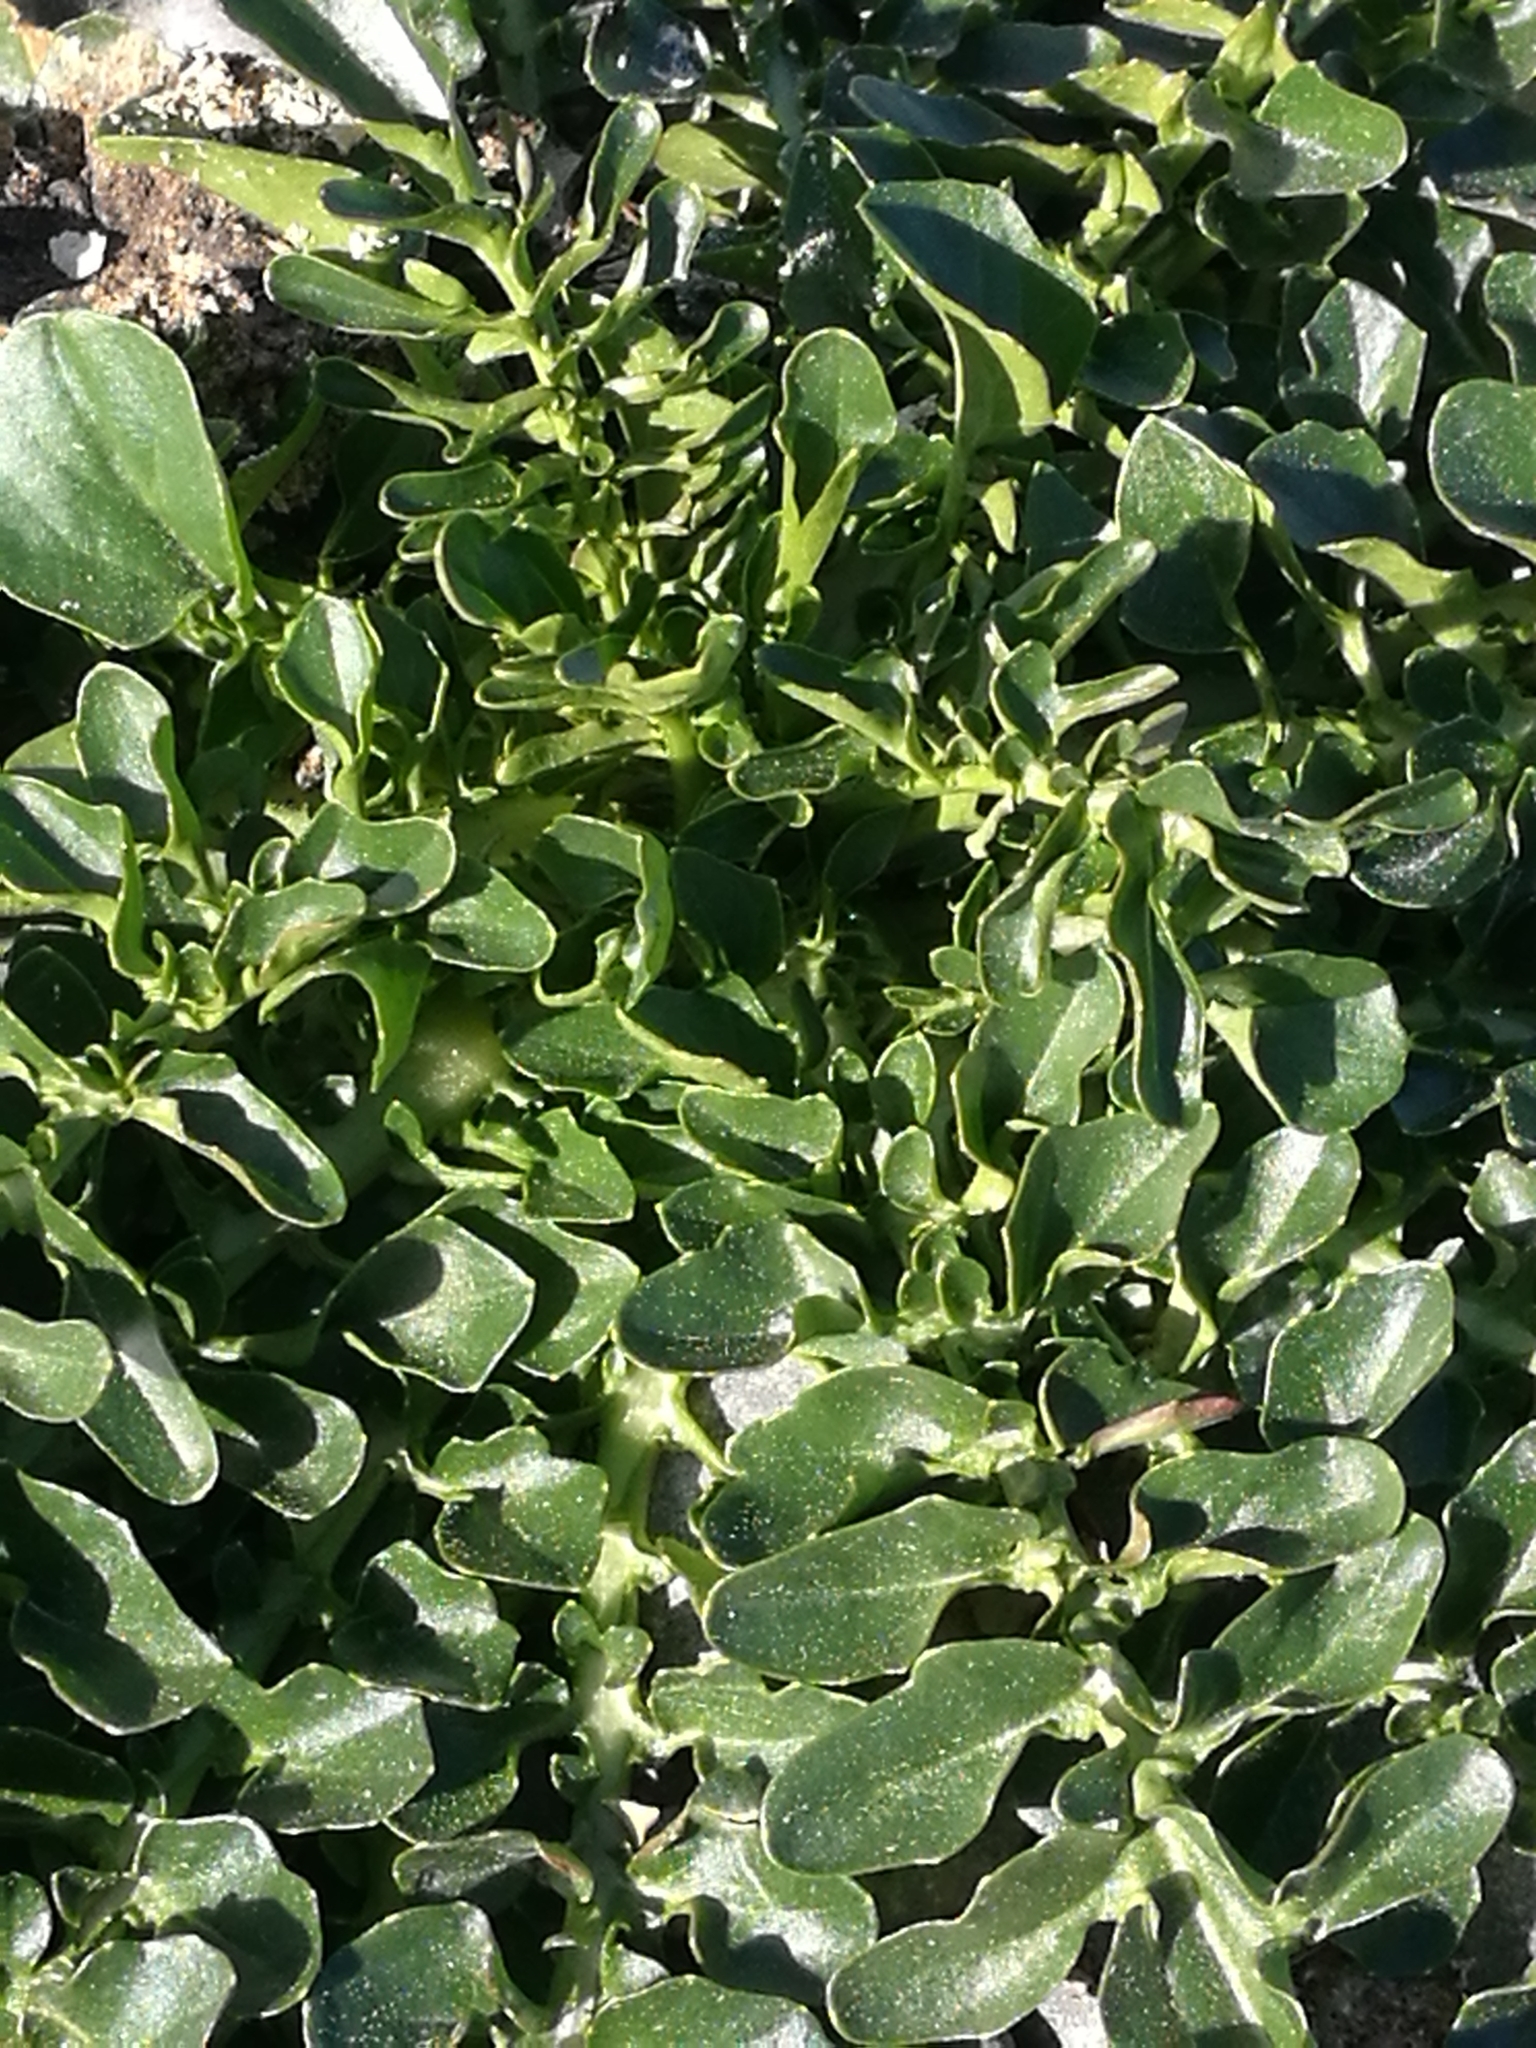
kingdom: Plantae
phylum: Tracheophyta
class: Magnoliopsida
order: Brassicales
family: Brassicaceae
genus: Barbarea
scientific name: Barbarea verna
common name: American cress
